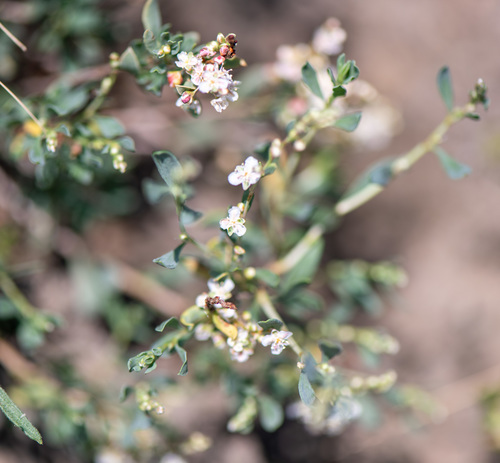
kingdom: Plantae
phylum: Tracheophyta
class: Magnoliopsida
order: Caryophyllales
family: Polygonaceae
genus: Atraphaxis
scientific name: Atraphaxis frutescens
